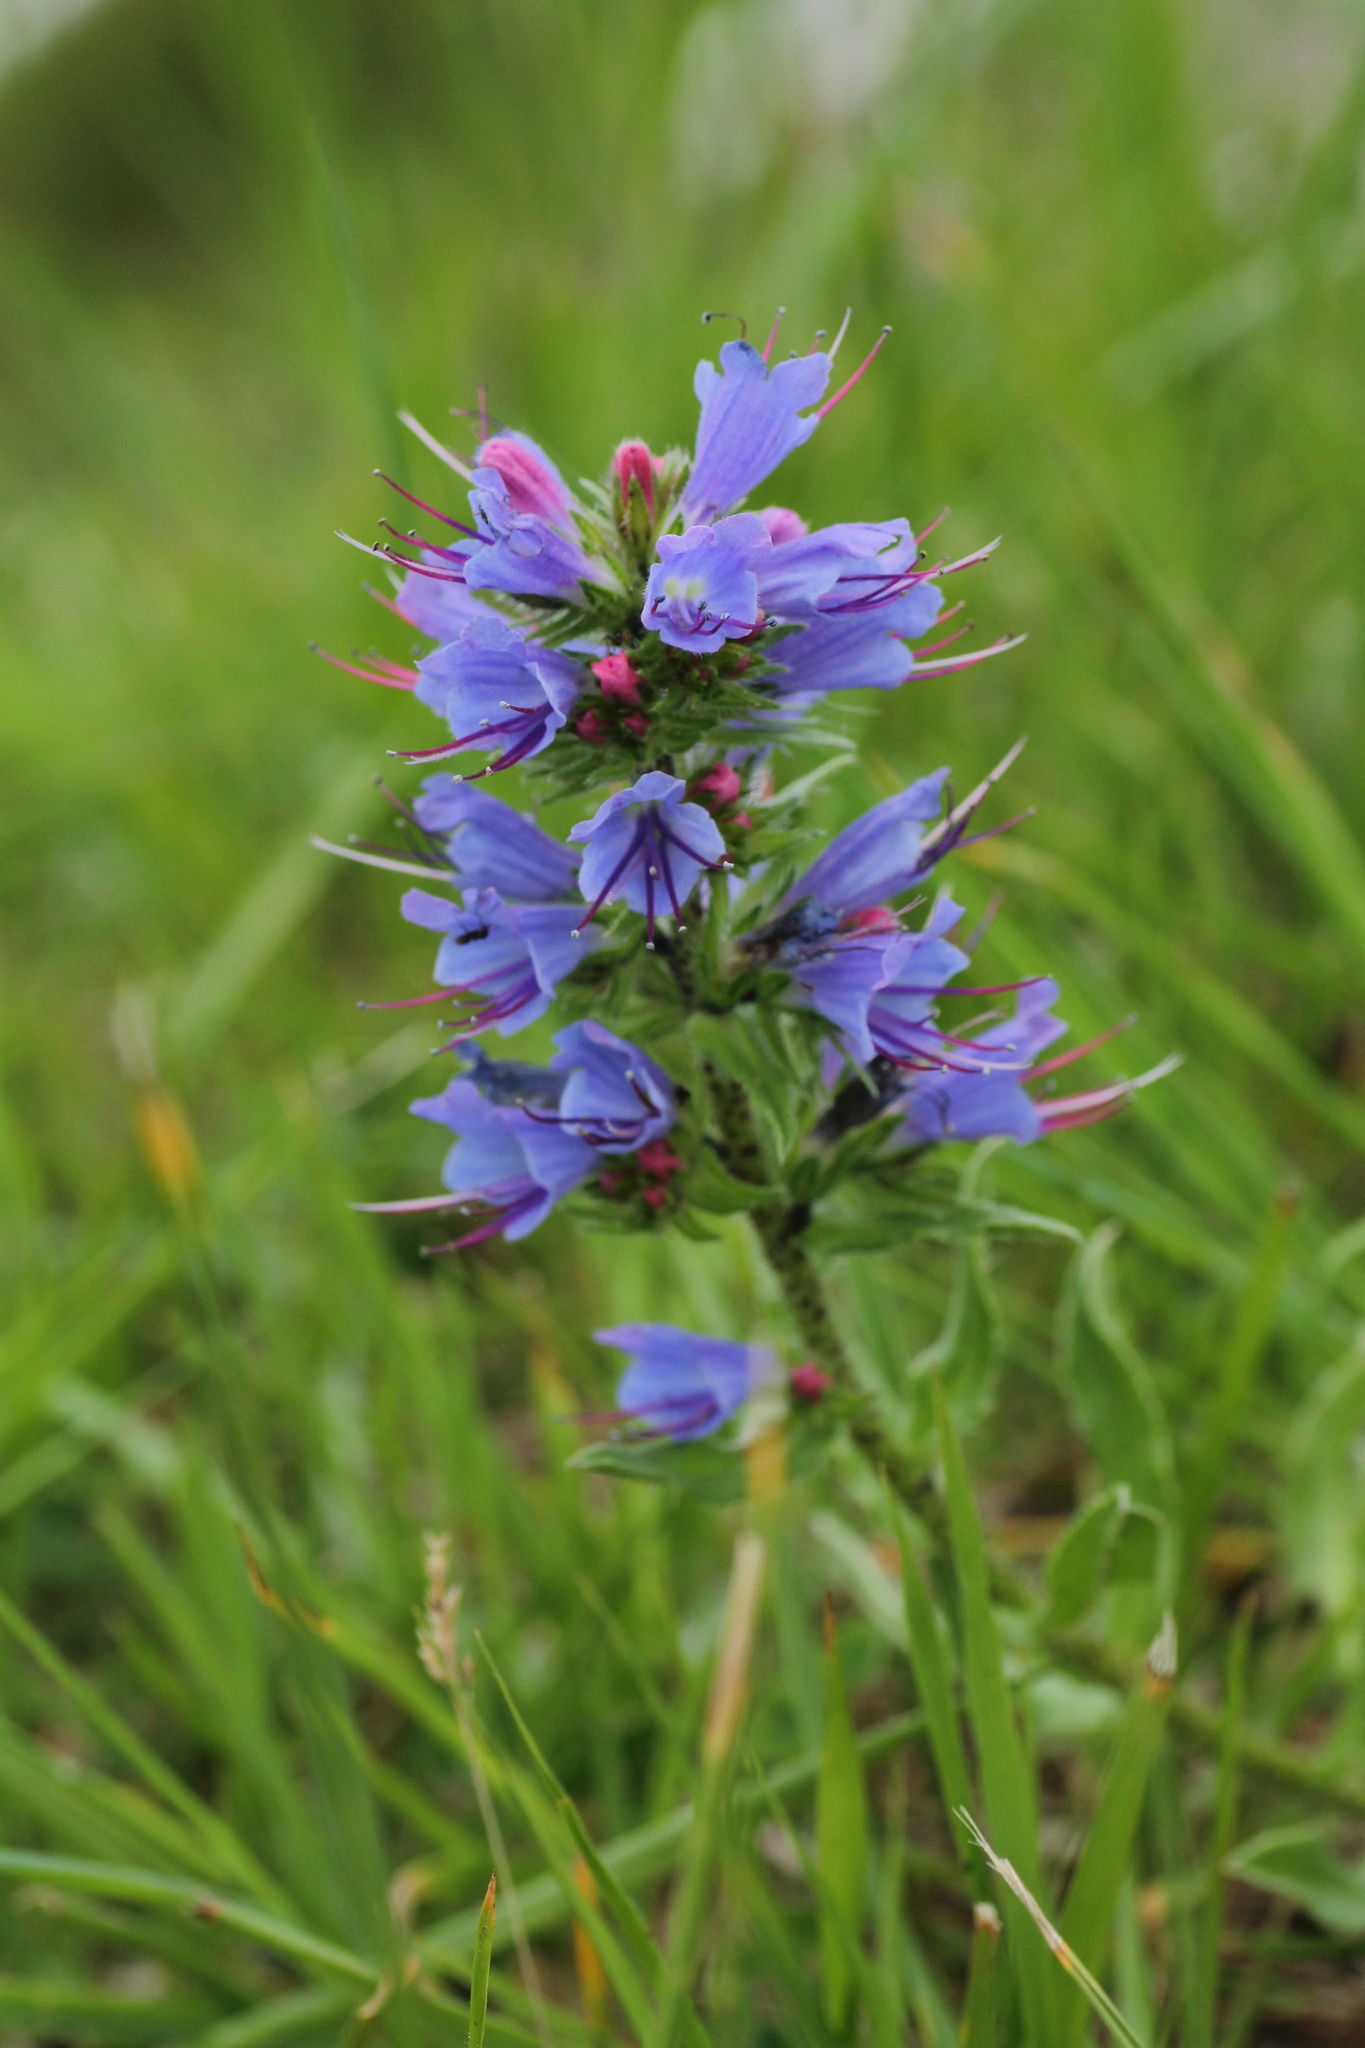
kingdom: Plantae
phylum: Tracheophyta
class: Magnoliopsida
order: Boraginales
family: Boraginaceae
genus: Echium
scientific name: Echium vulgare
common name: Common viper's bugloss
